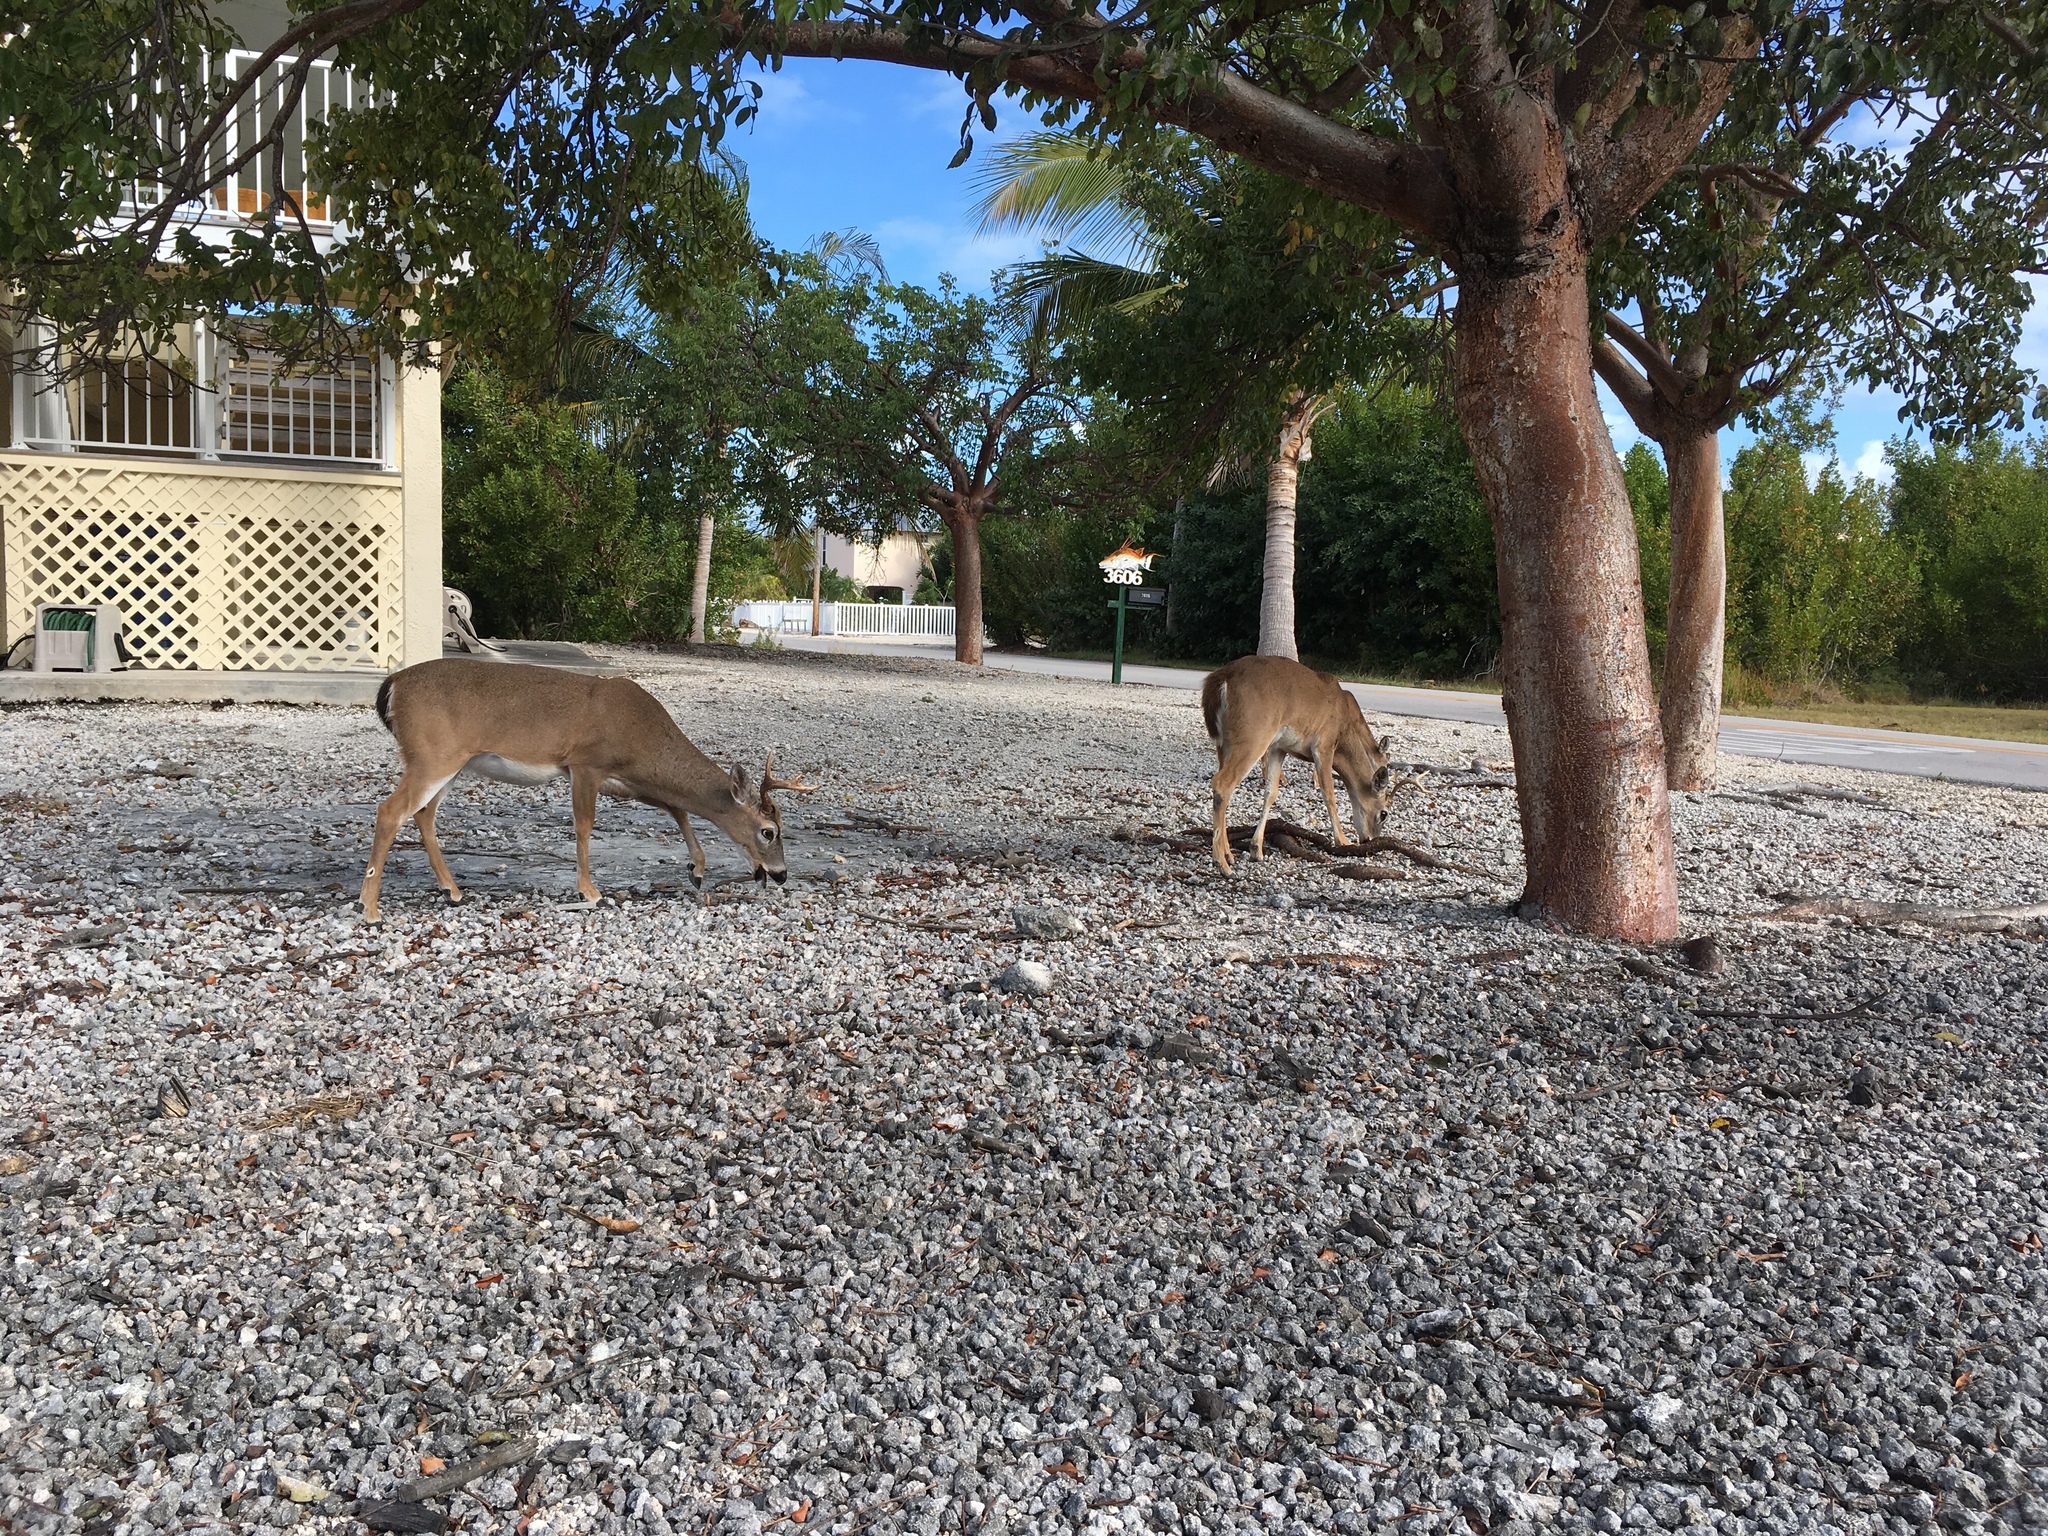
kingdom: Animalia
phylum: Chordata
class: Mammalia
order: Artiodactyla
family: Cervidae
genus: Odocoileus
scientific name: Odocoileus virginianus
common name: White-tailed deer
